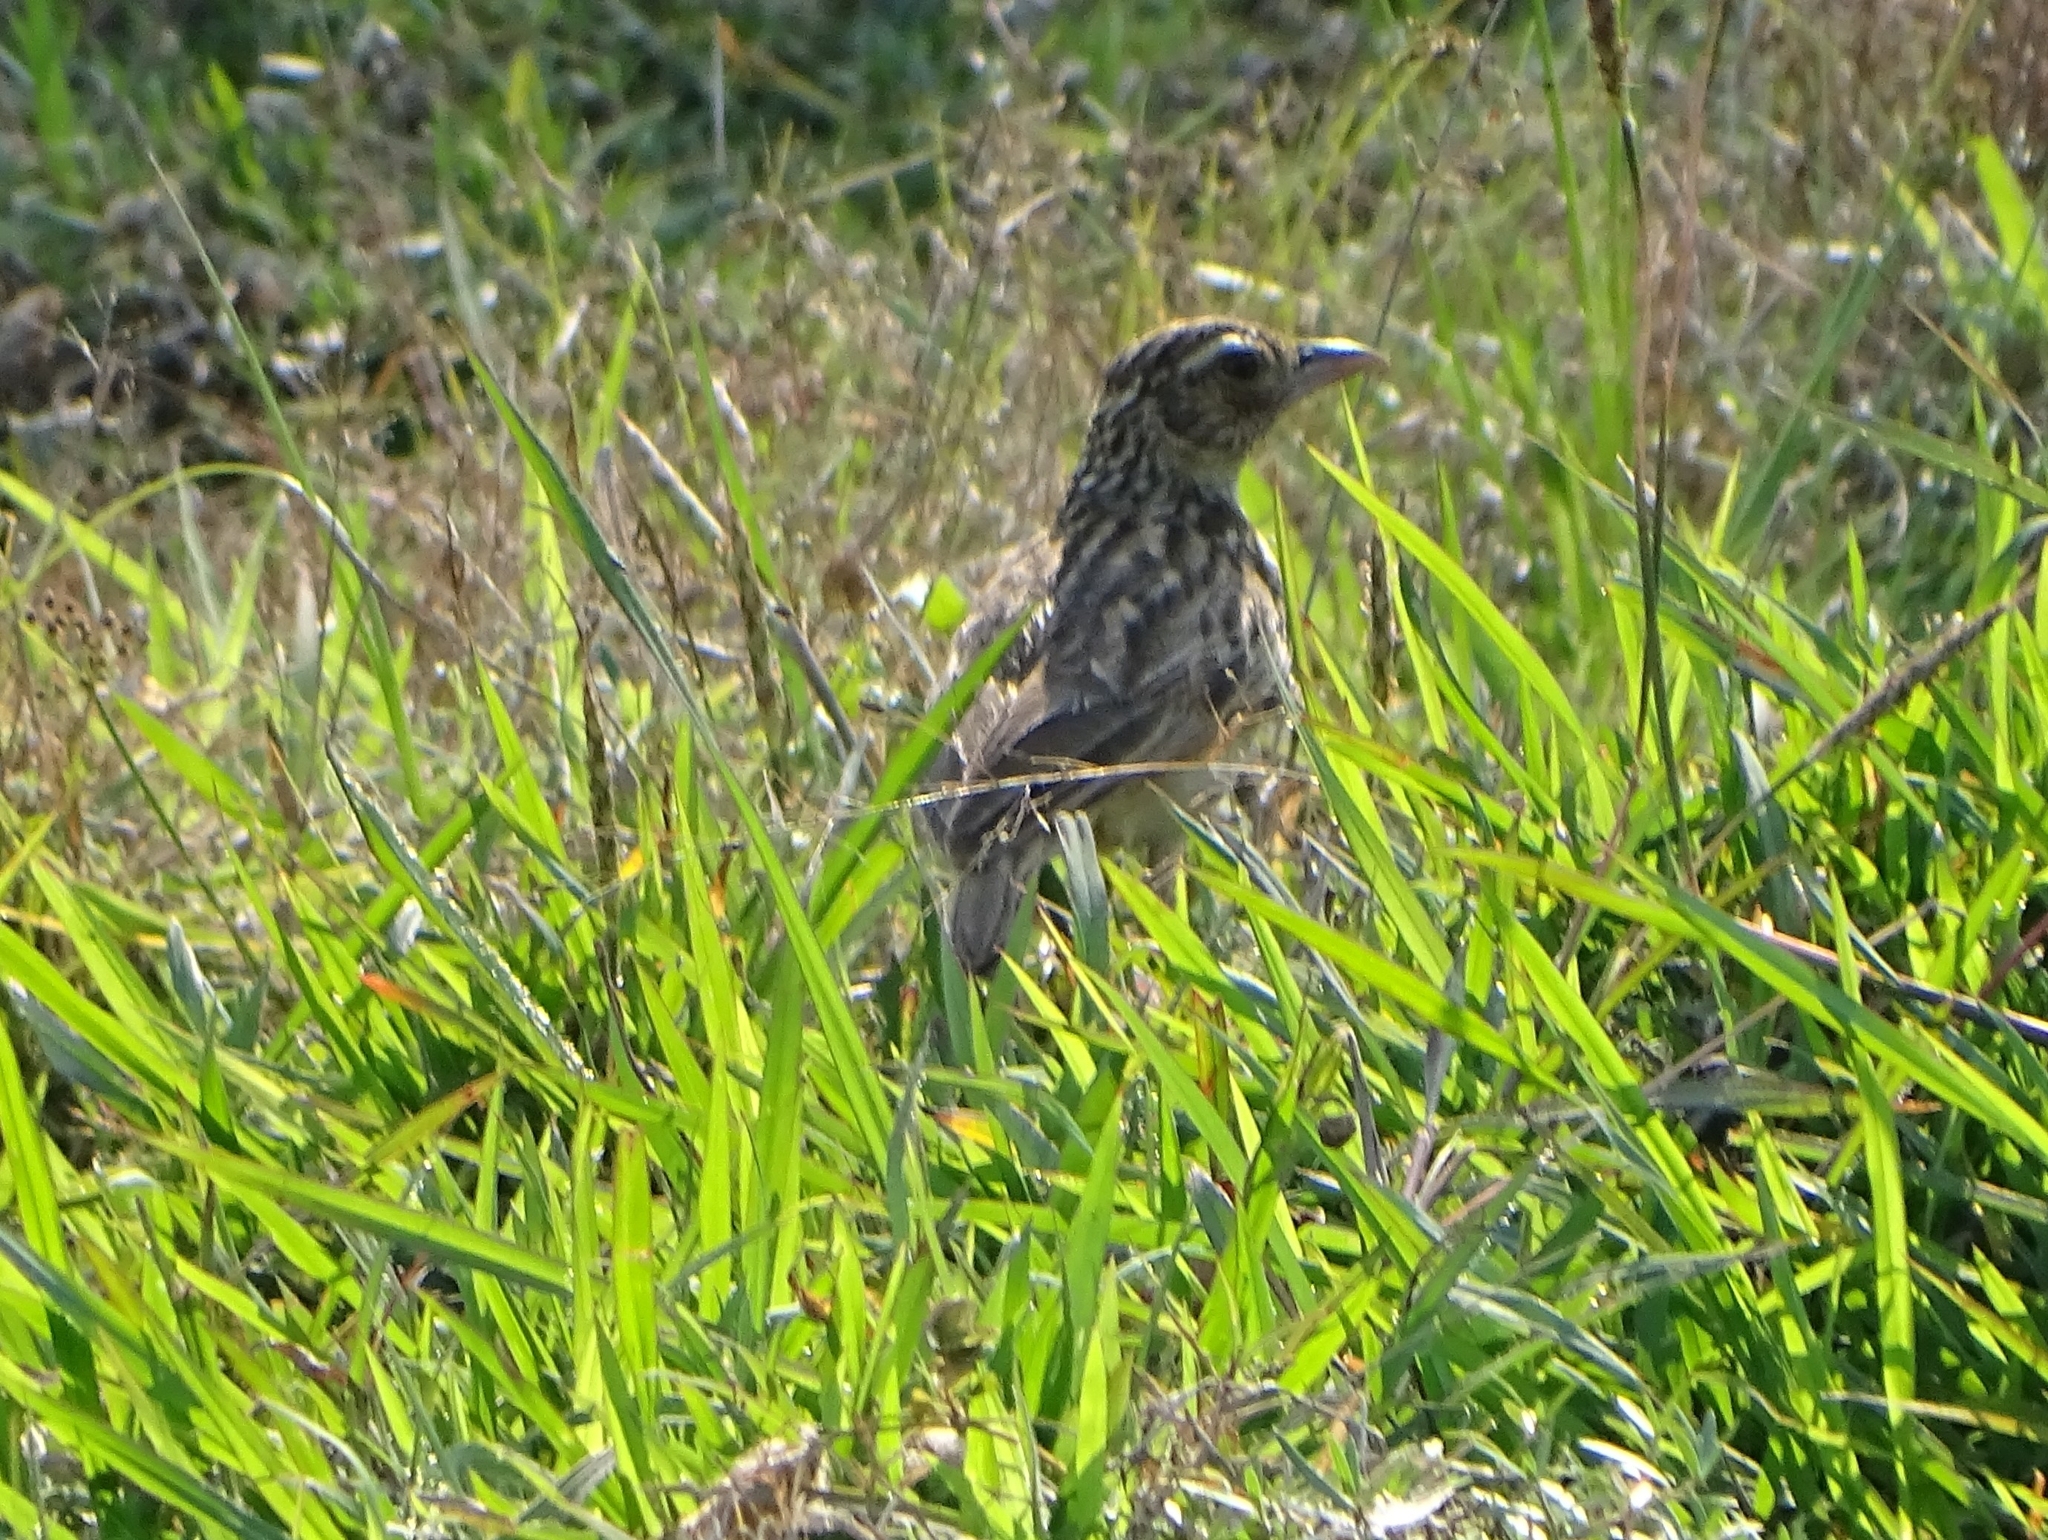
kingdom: Animalia
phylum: Chordata
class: Aves
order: Passeriformes
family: Alaudidae
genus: Mirafra
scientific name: Mirafra affinis
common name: Jerdon's bushlark
